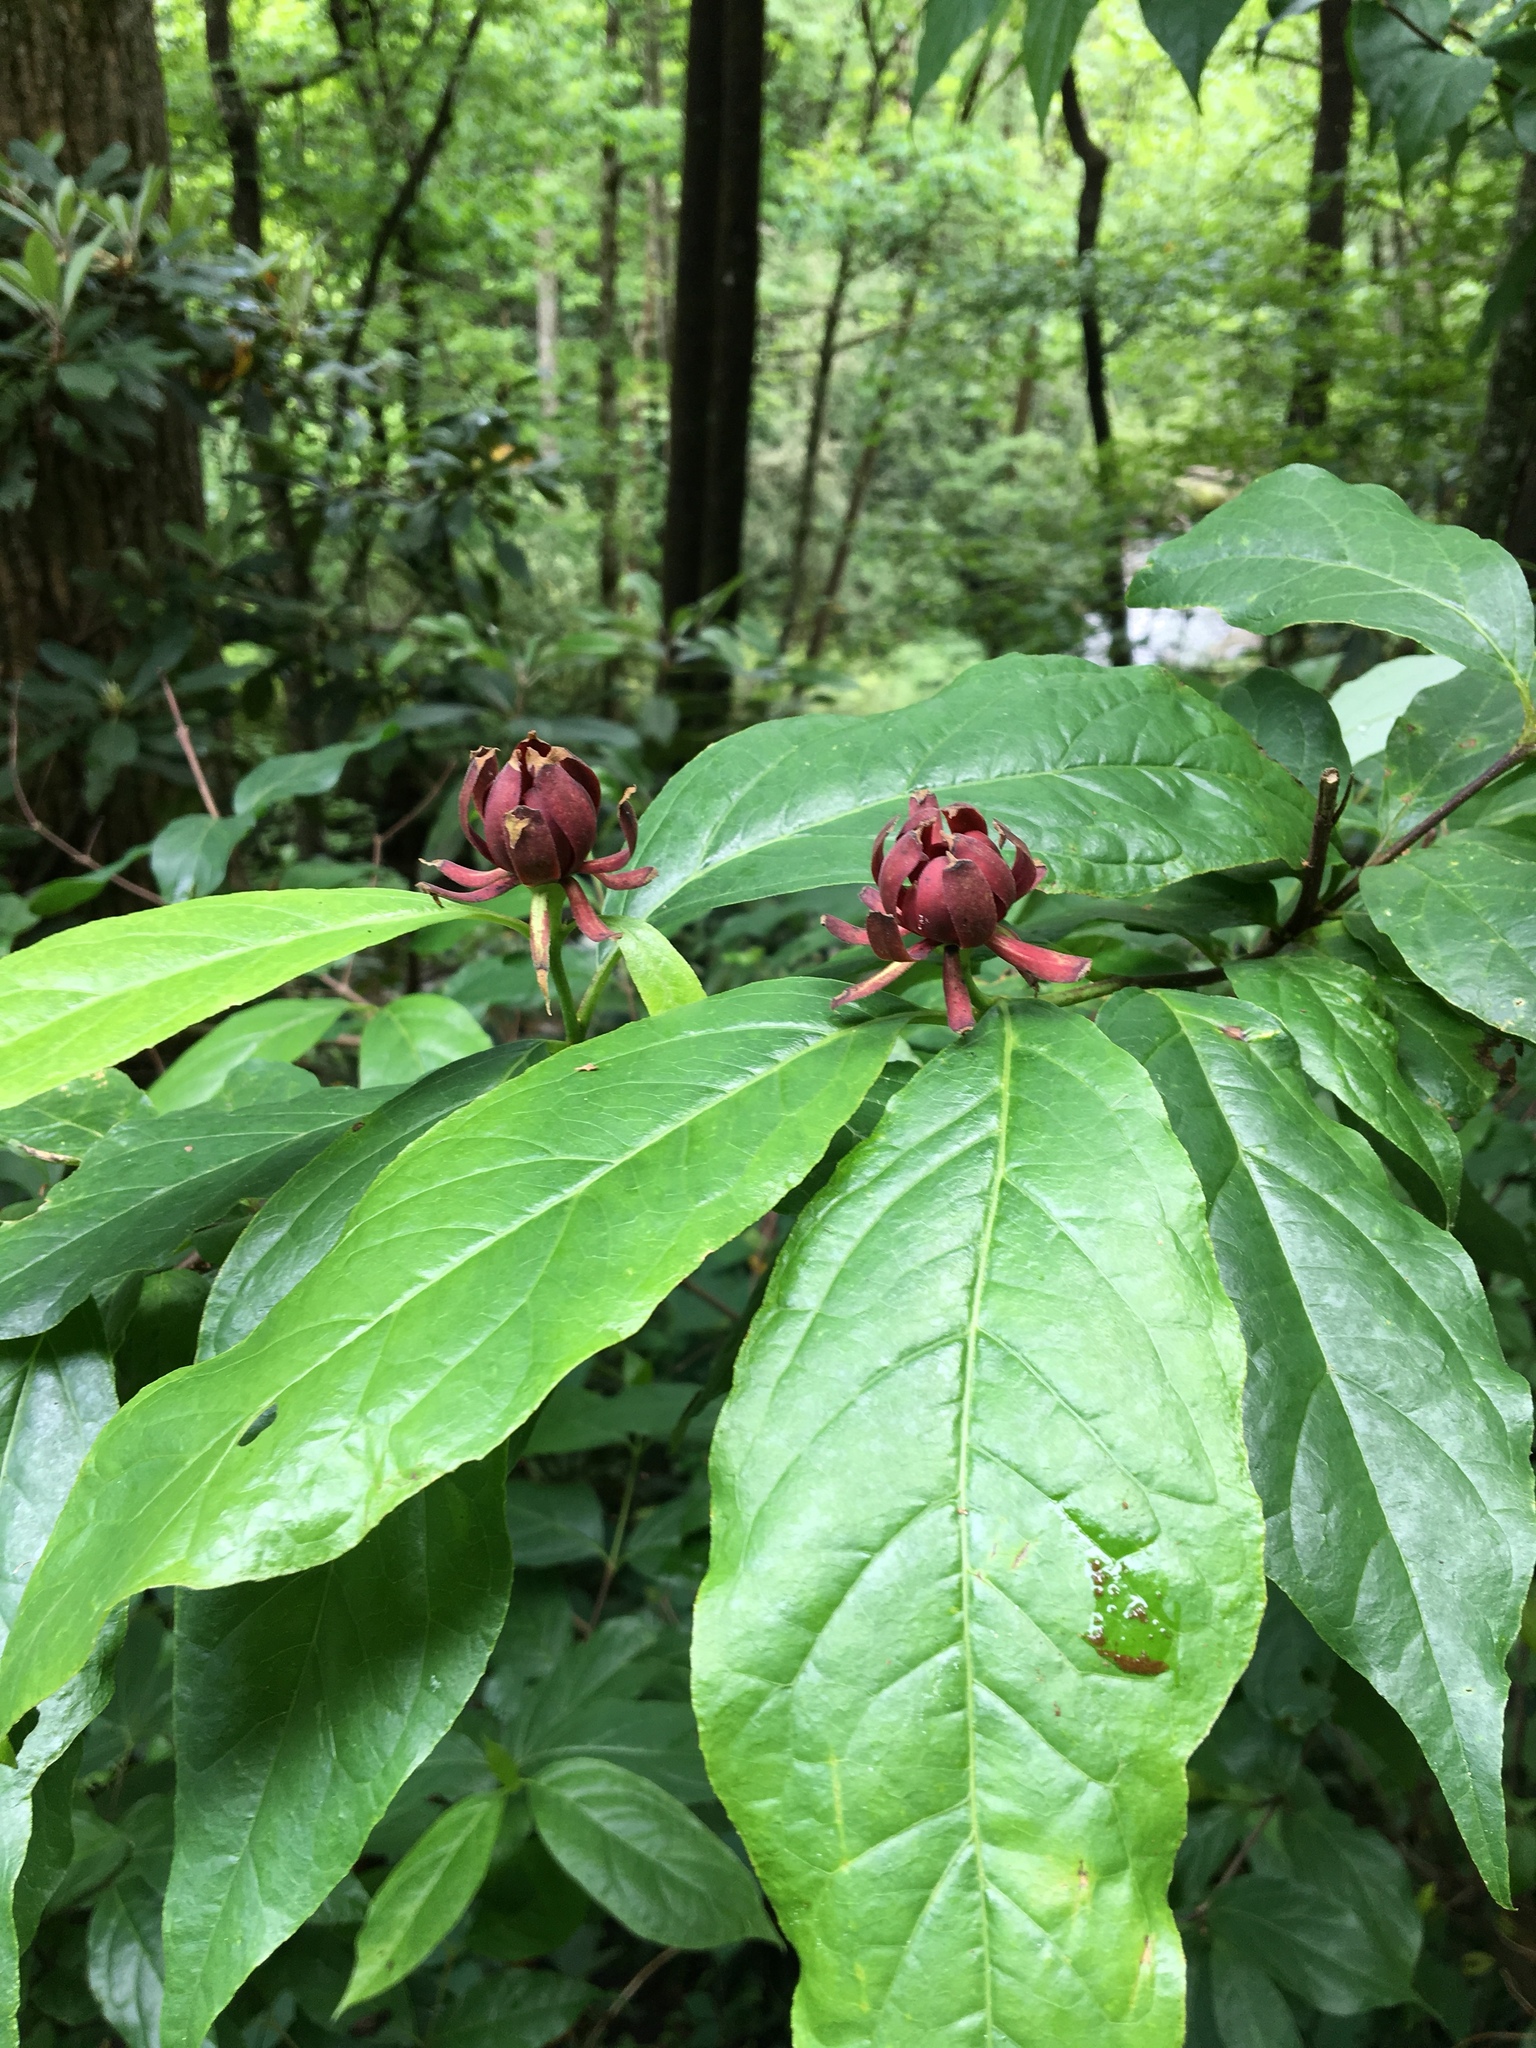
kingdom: Plantae
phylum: Tracheophyta
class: Magnoliopsida
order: Laurales
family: Calycanthaceae
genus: Calycanthus
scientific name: Calycanthus floridus
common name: Carolina-allspice
